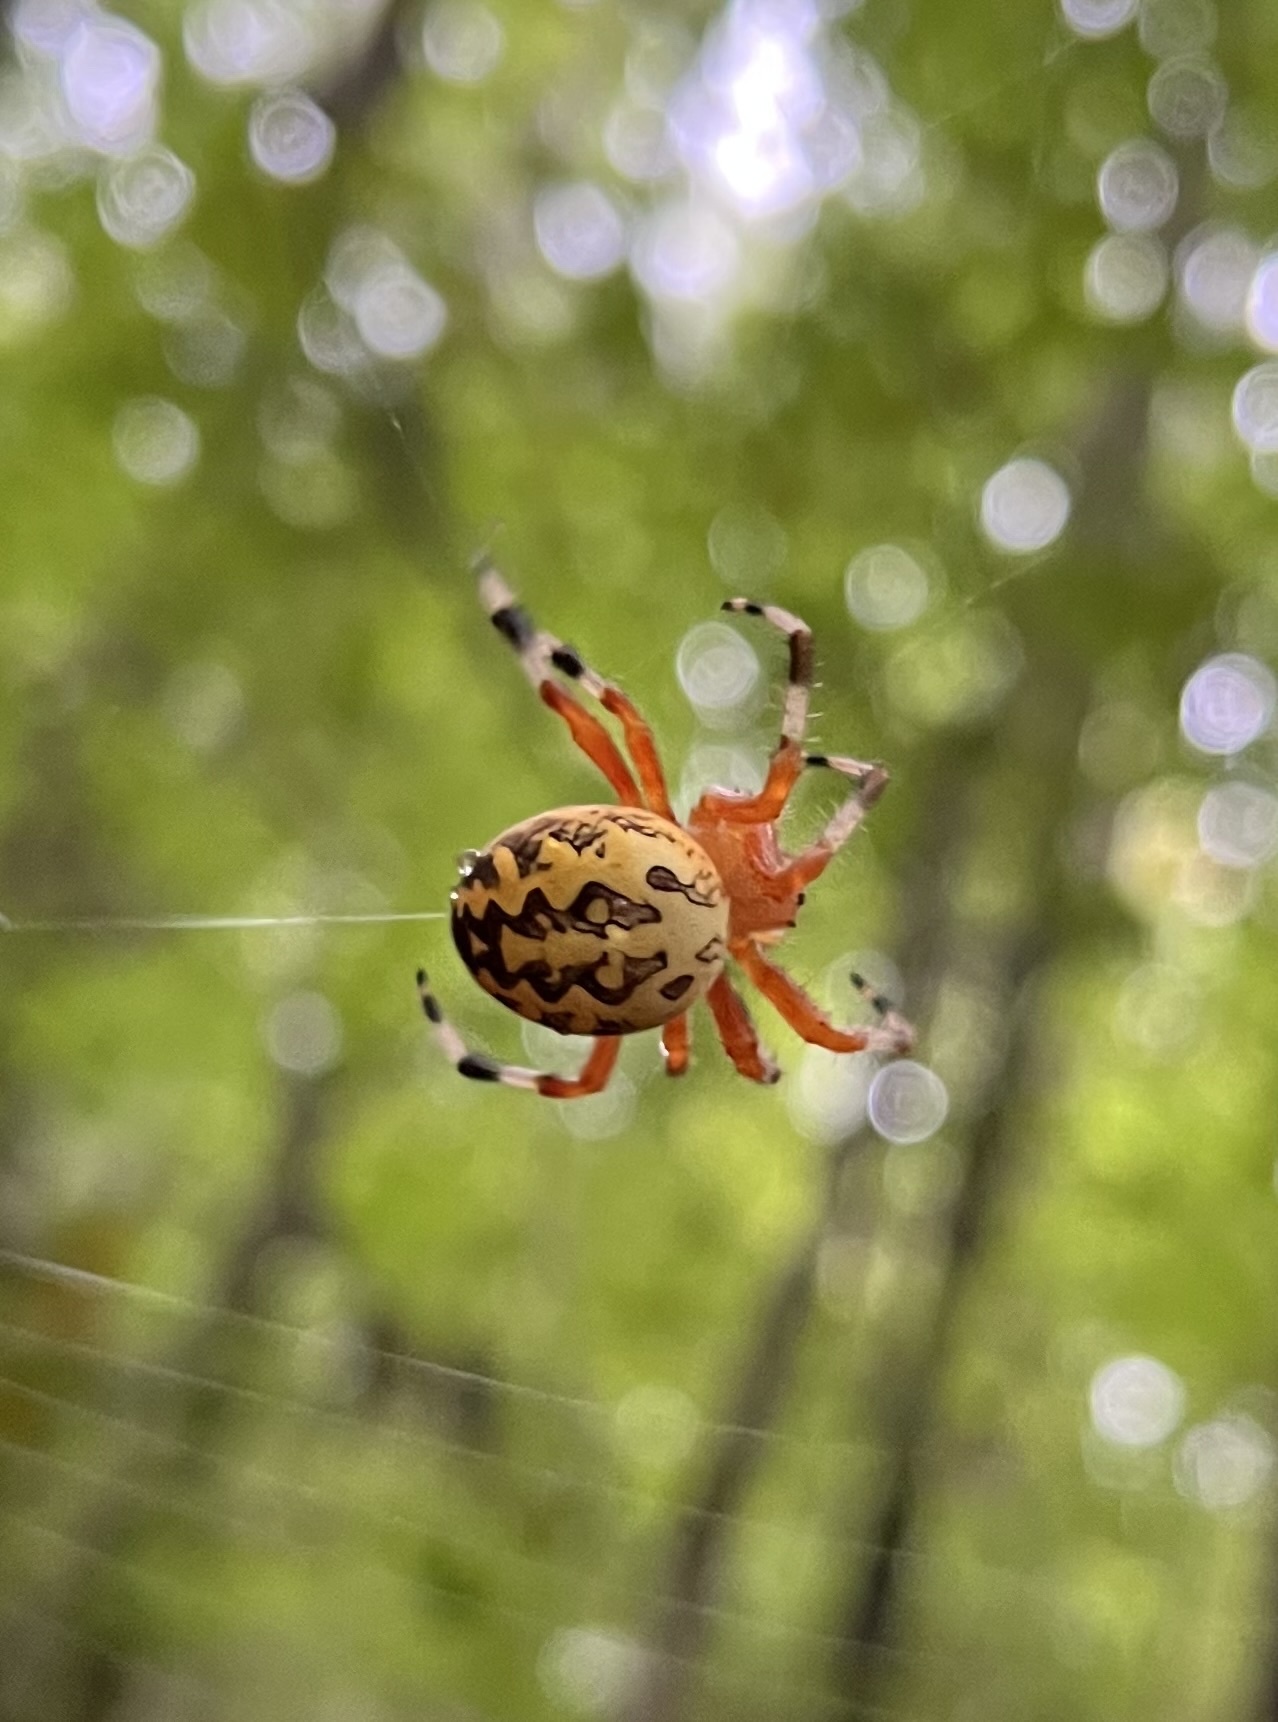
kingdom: Animalia
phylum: Arthropoda
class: Arachnida
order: Araneae
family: Araneidae
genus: Araneus
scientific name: Araneus marmoreus
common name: Marbled orbweaver
